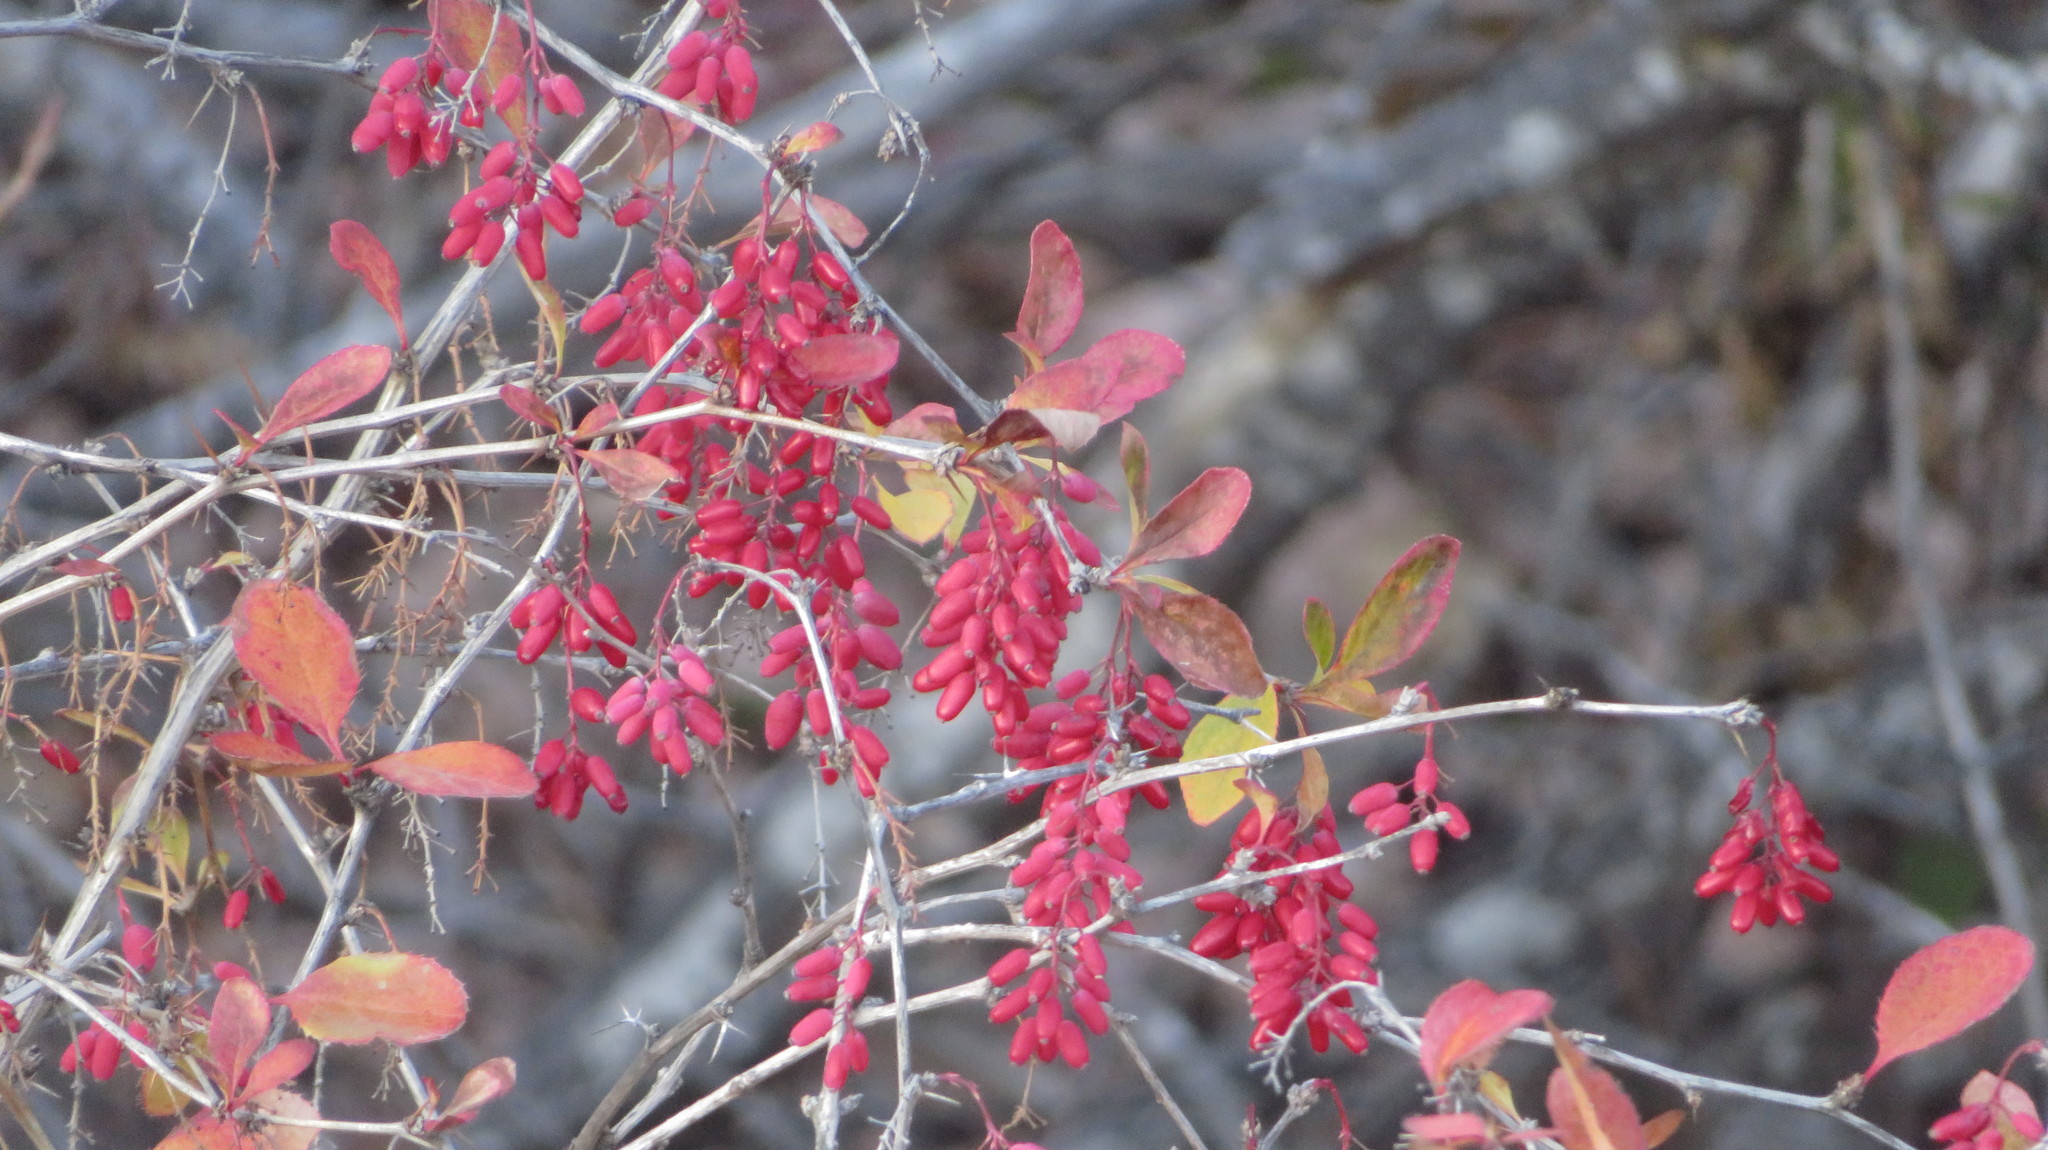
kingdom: Plantae
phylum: Tracheophyta
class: Magnoliopsida
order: Ranunculales
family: Berberidaceae
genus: Berberis
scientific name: Berberis vulgaris
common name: Barberry
